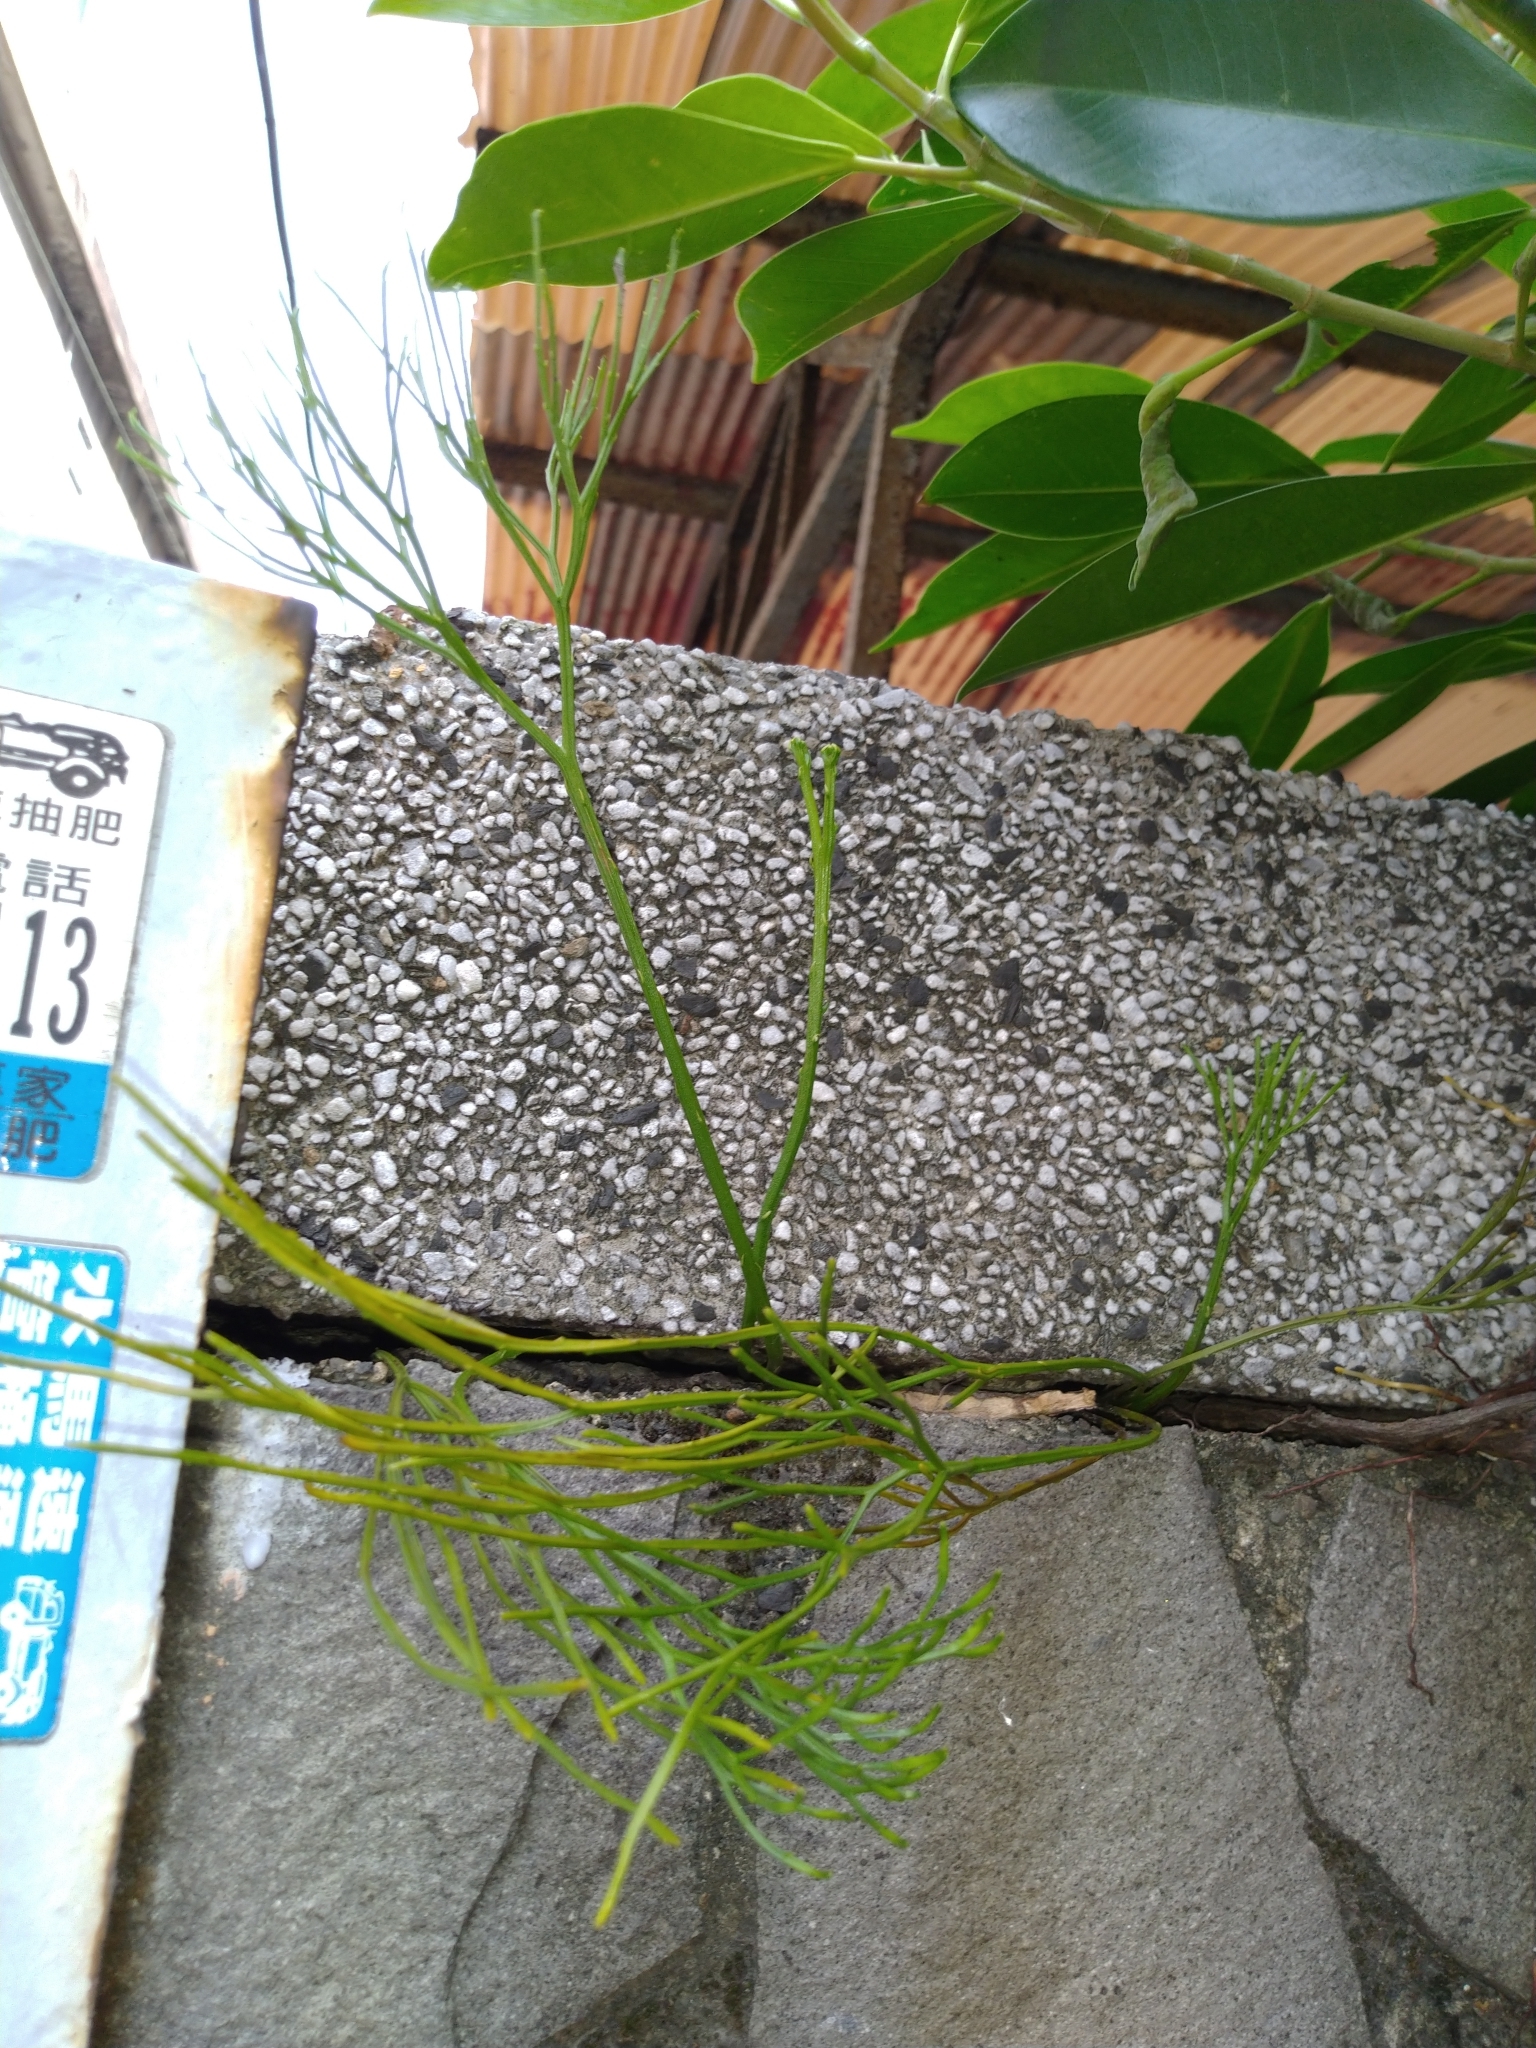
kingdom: Plantae
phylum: Tracheophyta
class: Polypodiopsida
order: Psilotales
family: Psilotaceae
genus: Psilotum
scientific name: Psilotum nudum
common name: Skeleton fork fern
